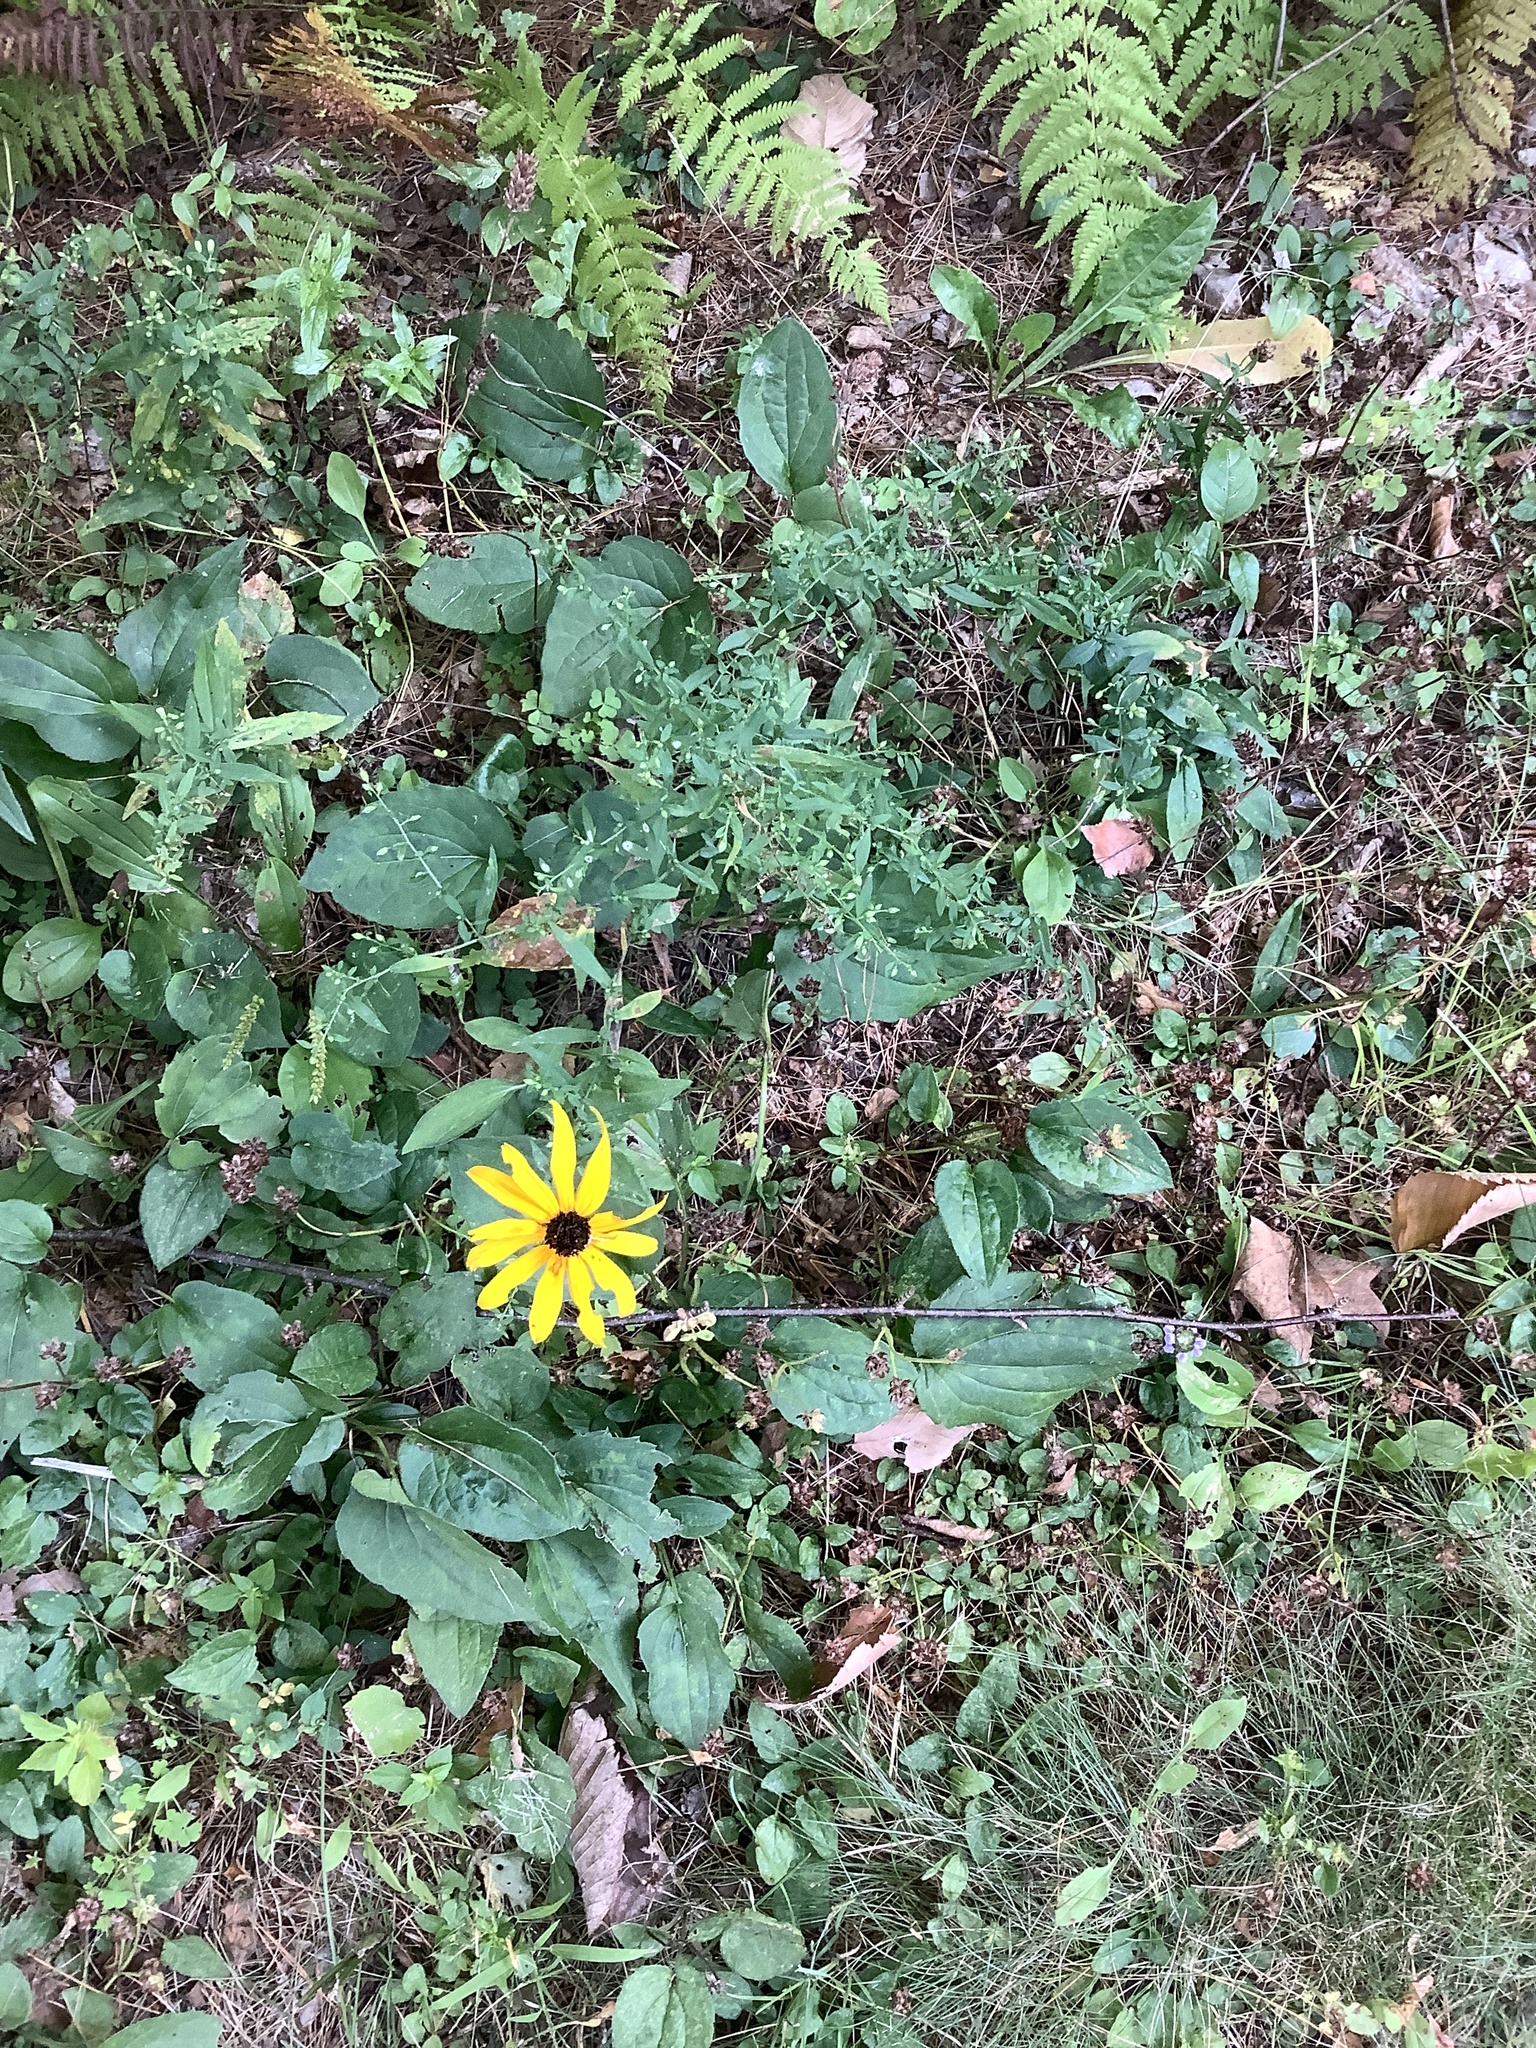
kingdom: Plantae
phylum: Tracheophyta
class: Magnoliopsida
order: Asterales
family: Asteraceae
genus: Rudbeckia
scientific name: Rudbeckia hirta
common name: Black-eyed-susan
